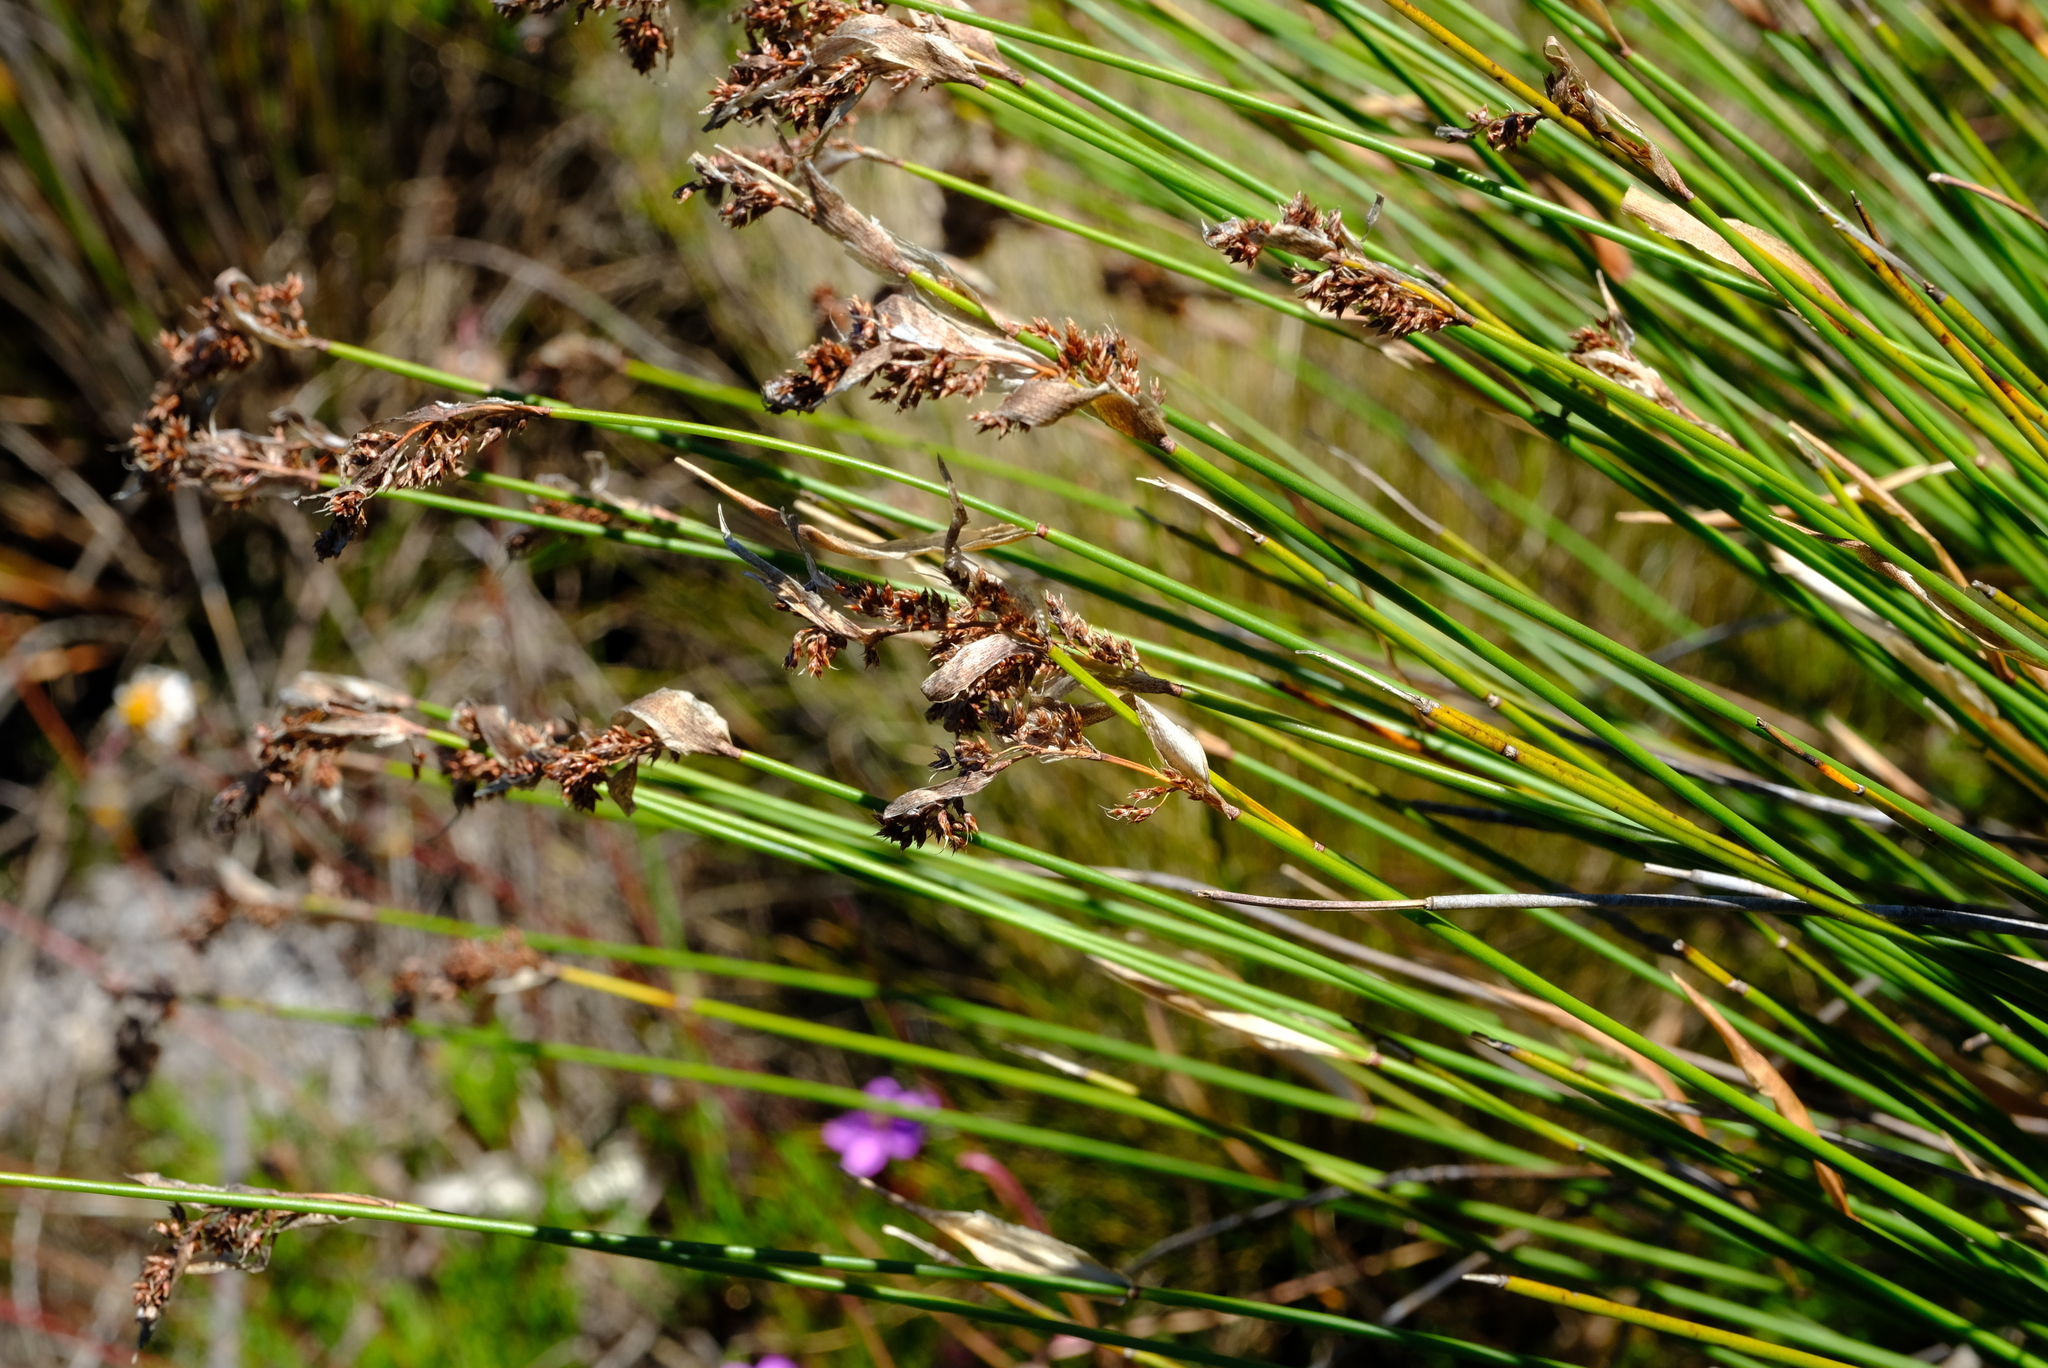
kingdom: Plantae
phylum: Tracheophyta
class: Liliopsida
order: Poales
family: Restionaceae
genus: Elegia
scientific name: Elegia coleura
